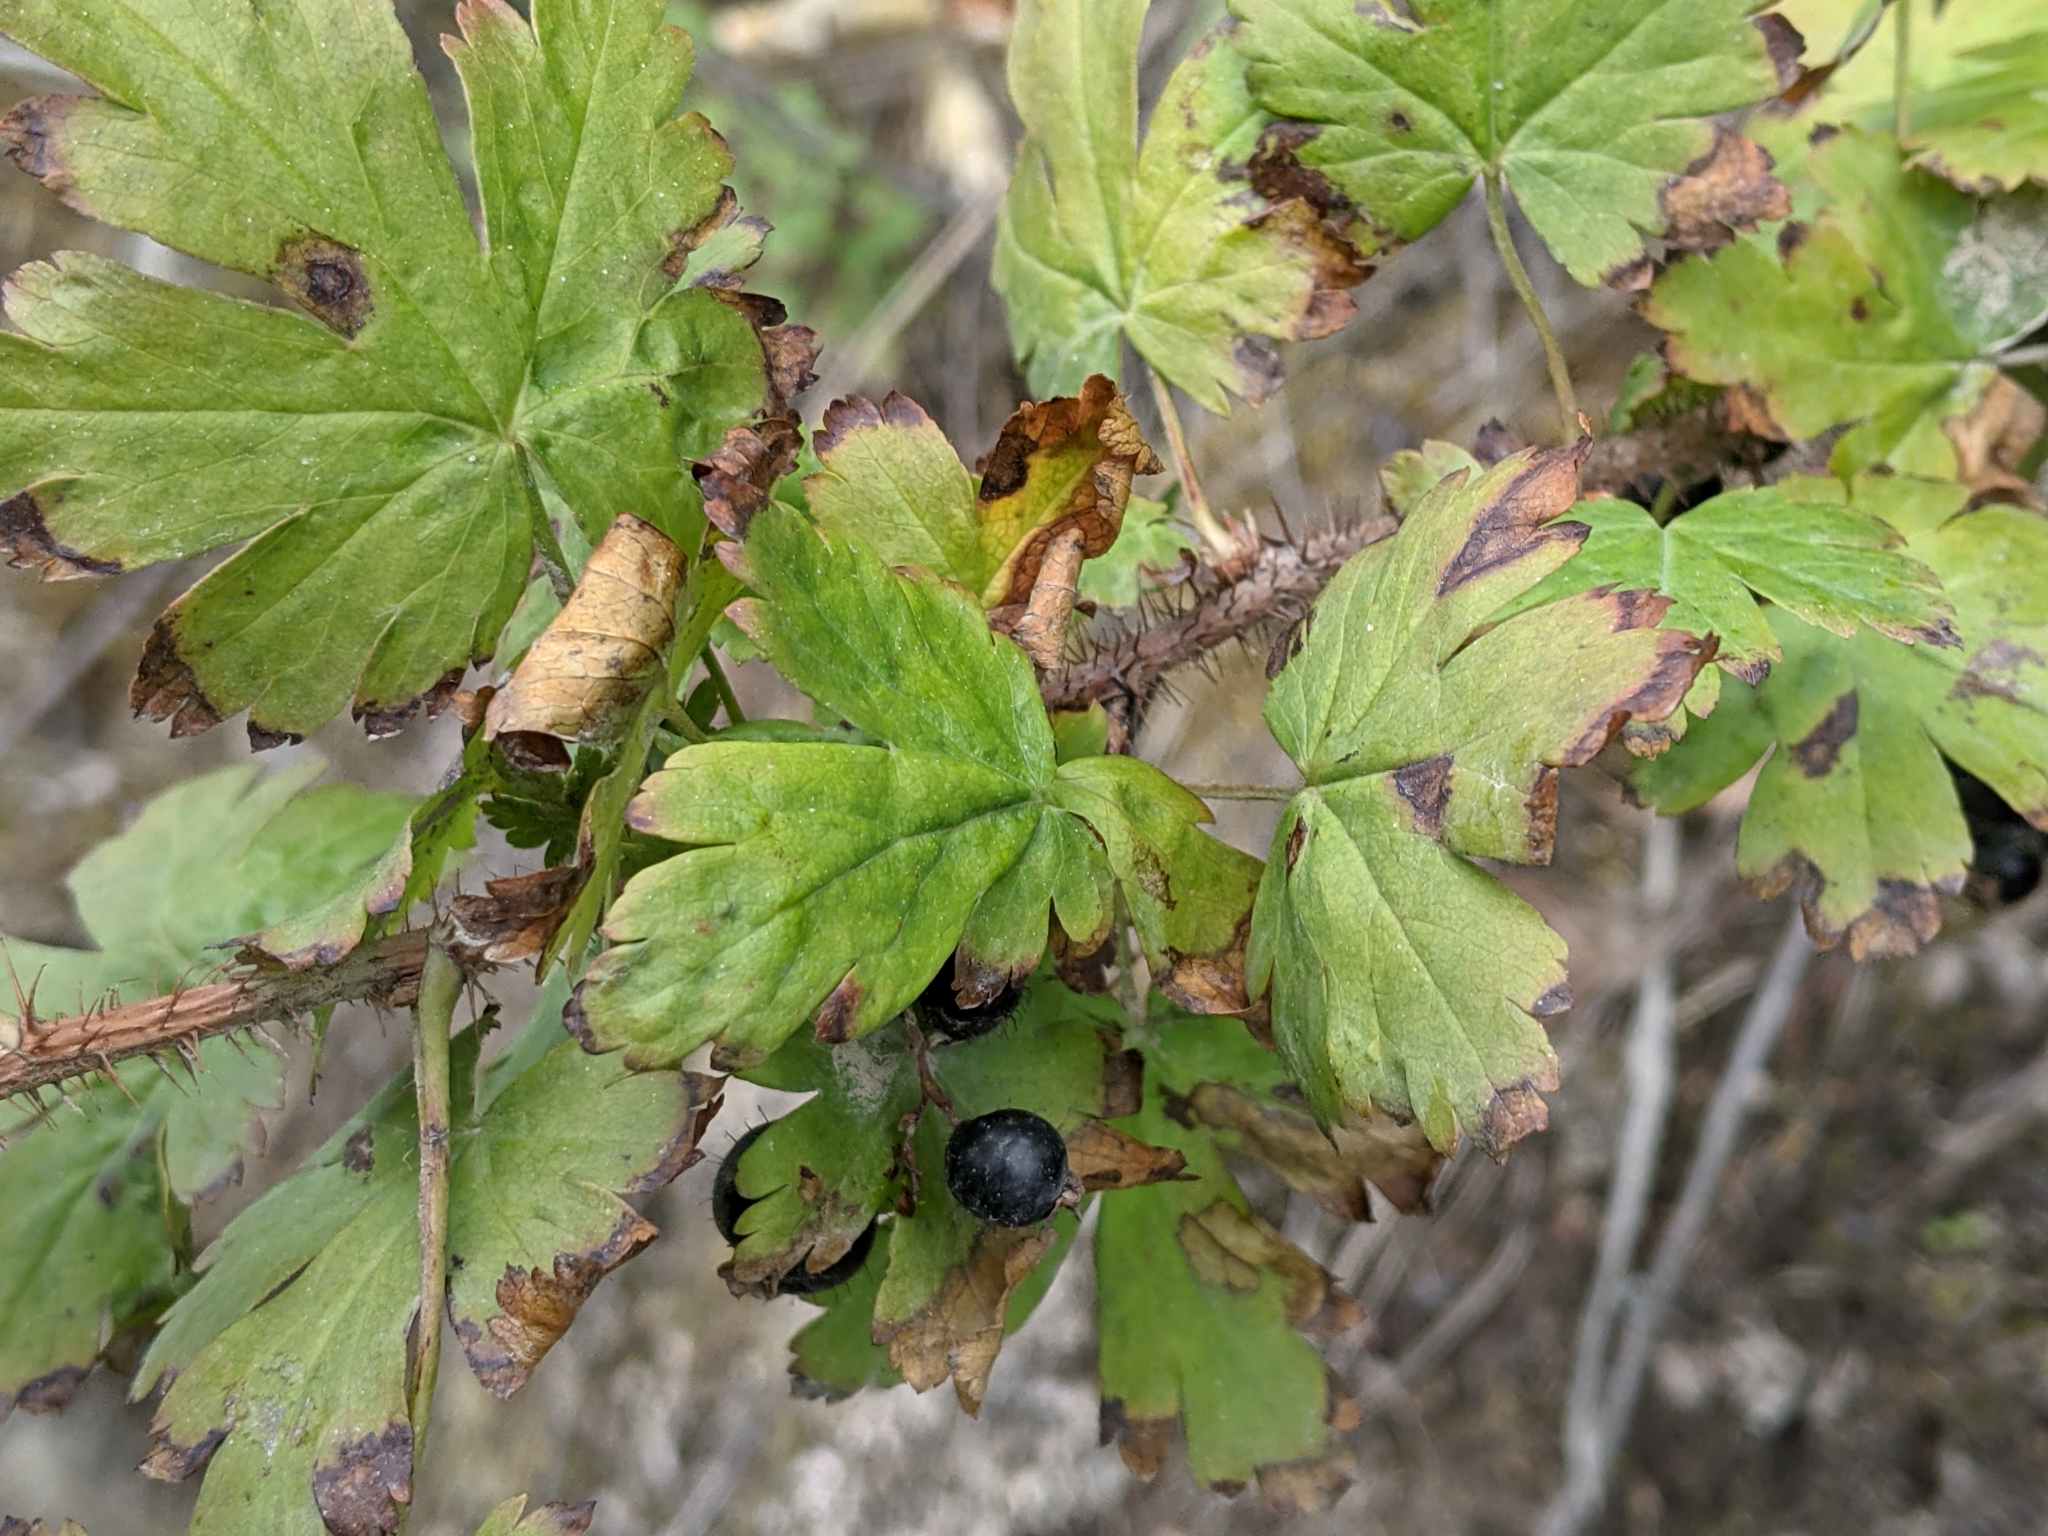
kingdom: Plantae
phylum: Tracheophyta
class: Magnoliopsida
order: Saxifragales
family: Grossulariaceae
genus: Ribes
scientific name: Ribes lacustre
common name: Black gooseberry
